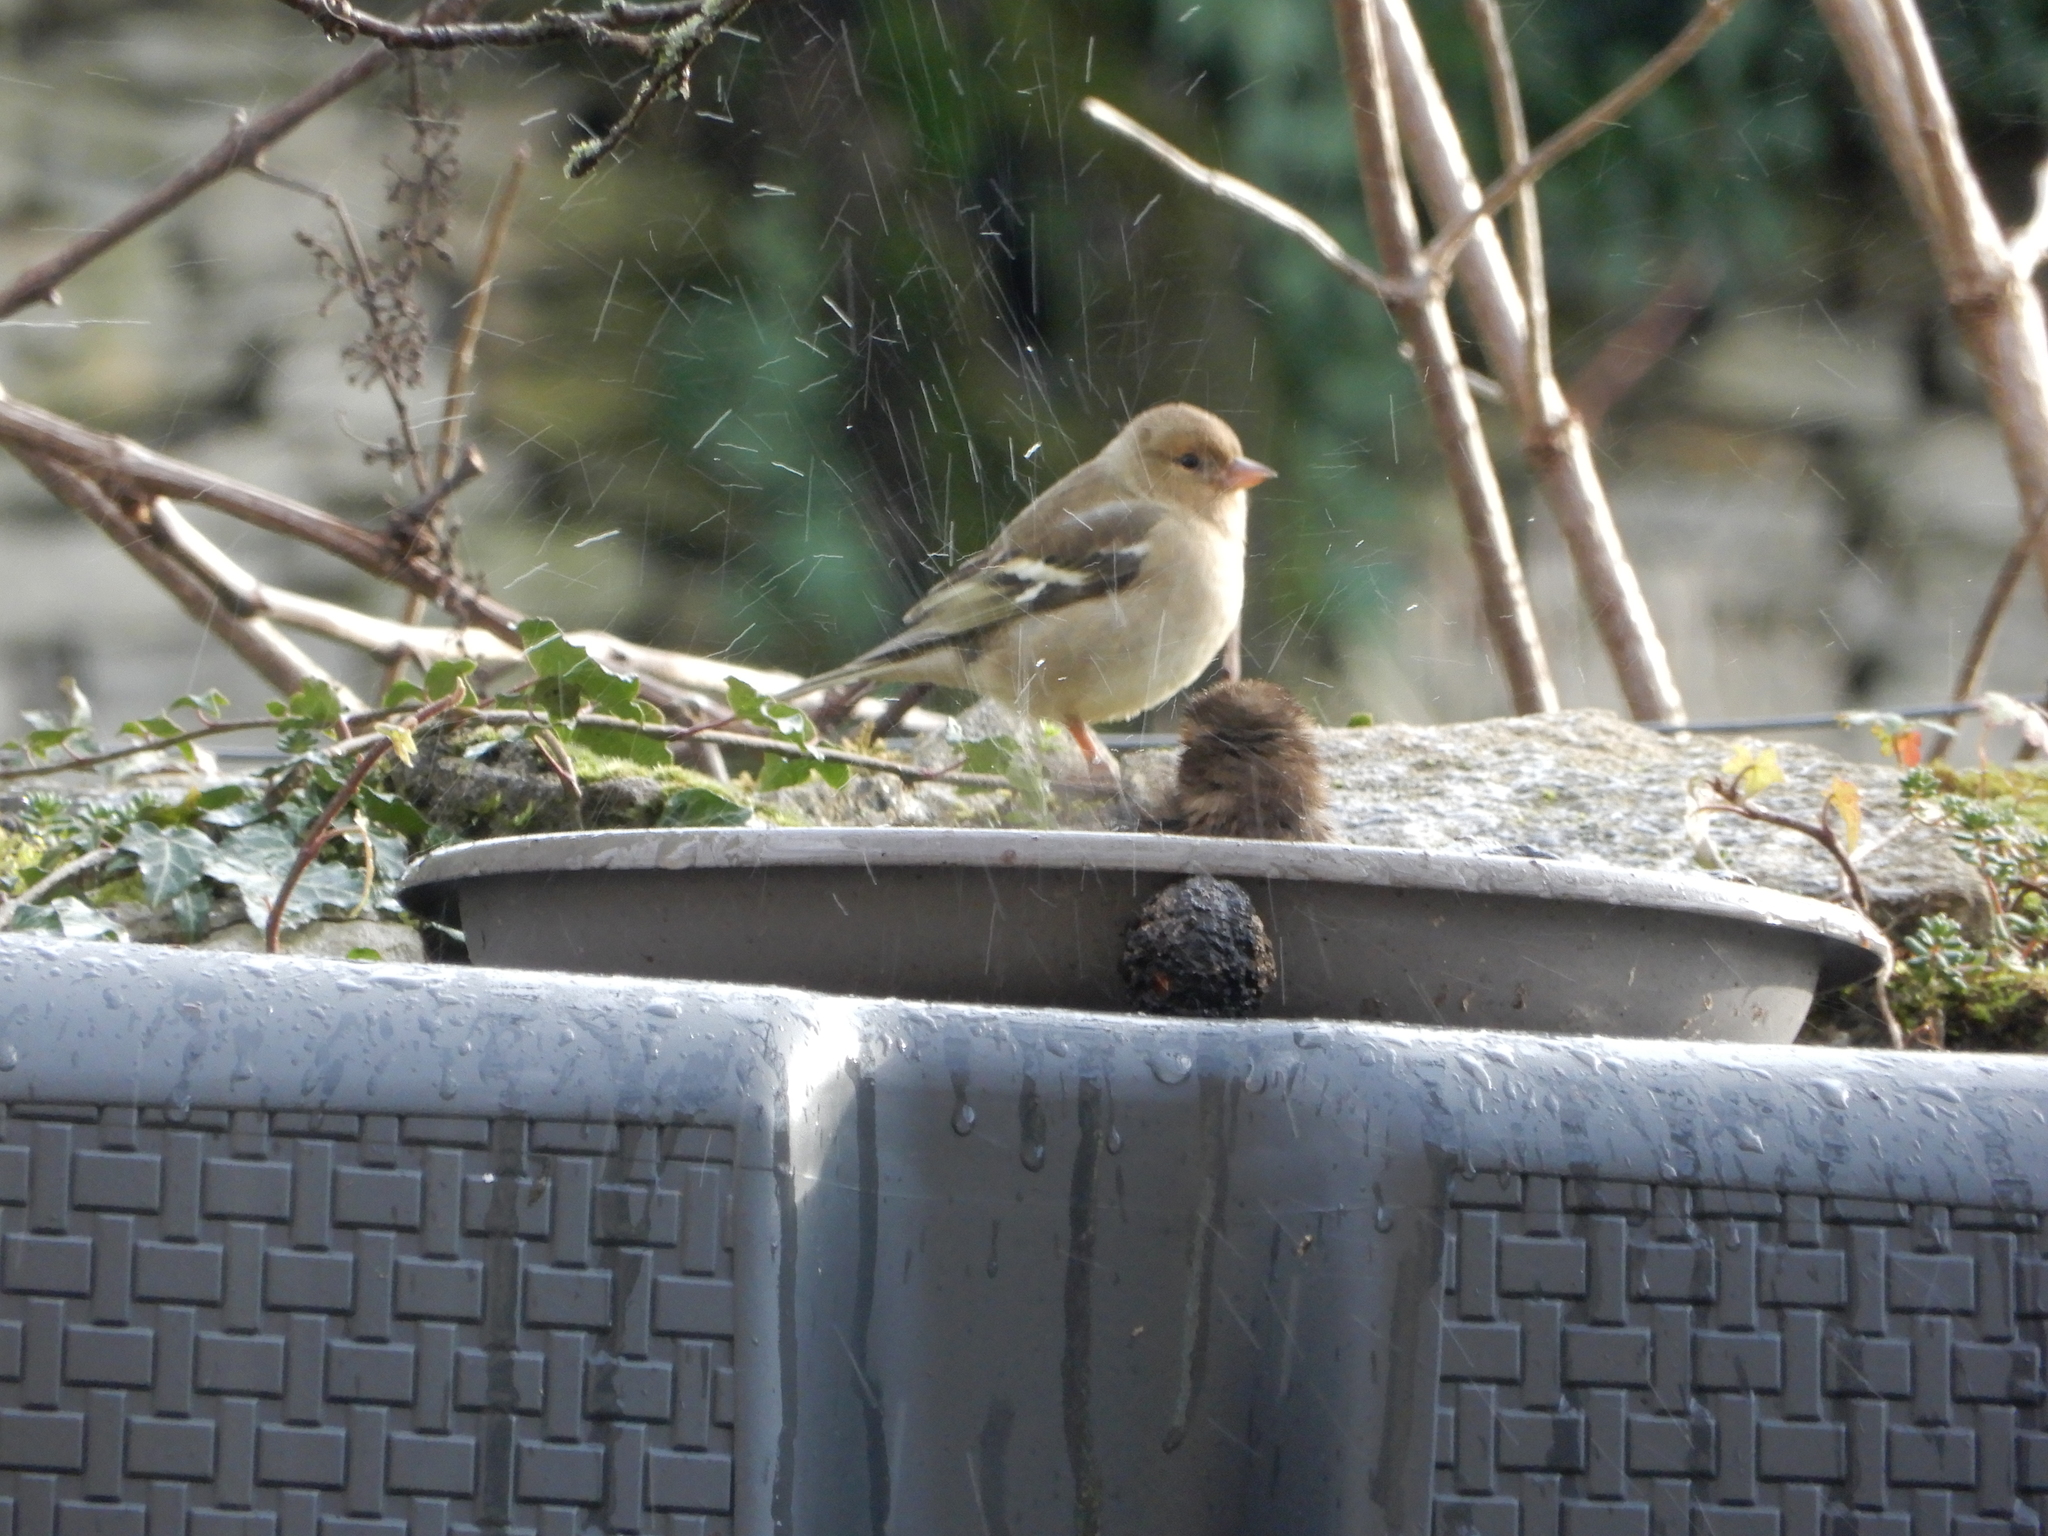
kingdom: Animalia
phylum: Chordata
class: Aves
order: Passeriformes
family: Fringillidae
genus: Fringilla
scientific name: Fringilla coelebs
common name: Common chaffinch
